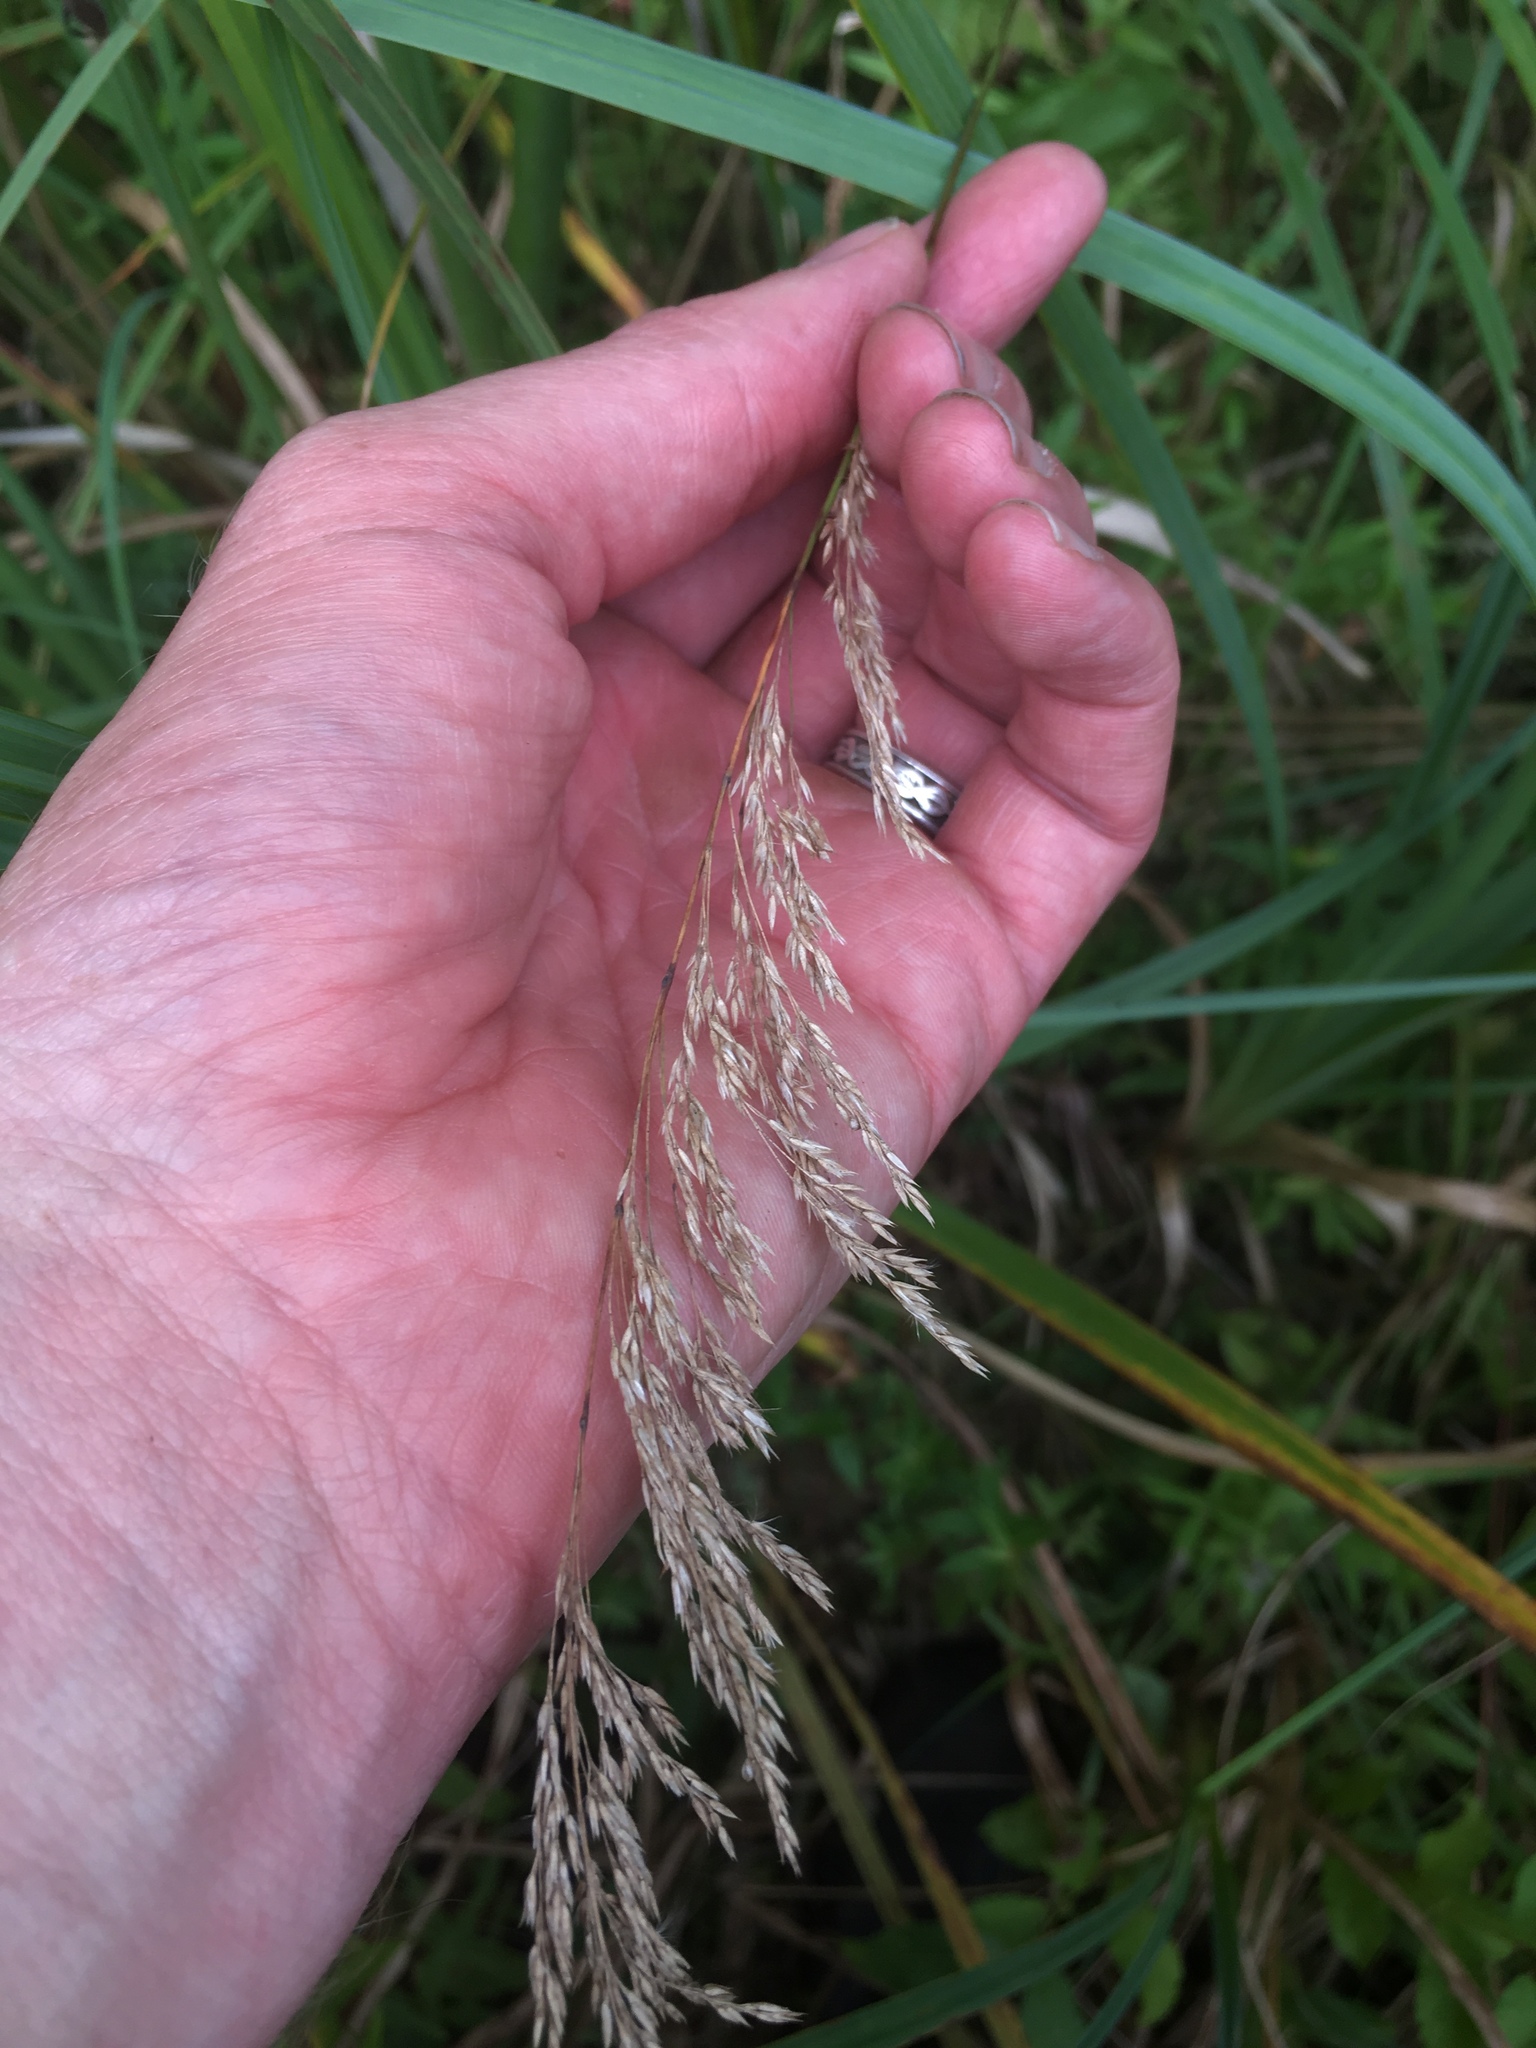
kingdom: Plantae
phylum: Tracheophyta
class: Liliopsida
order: Poales
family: Poaceae
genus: Calamagrostis
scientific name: Calamagrostis canadensis
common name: Canada bluejoint
